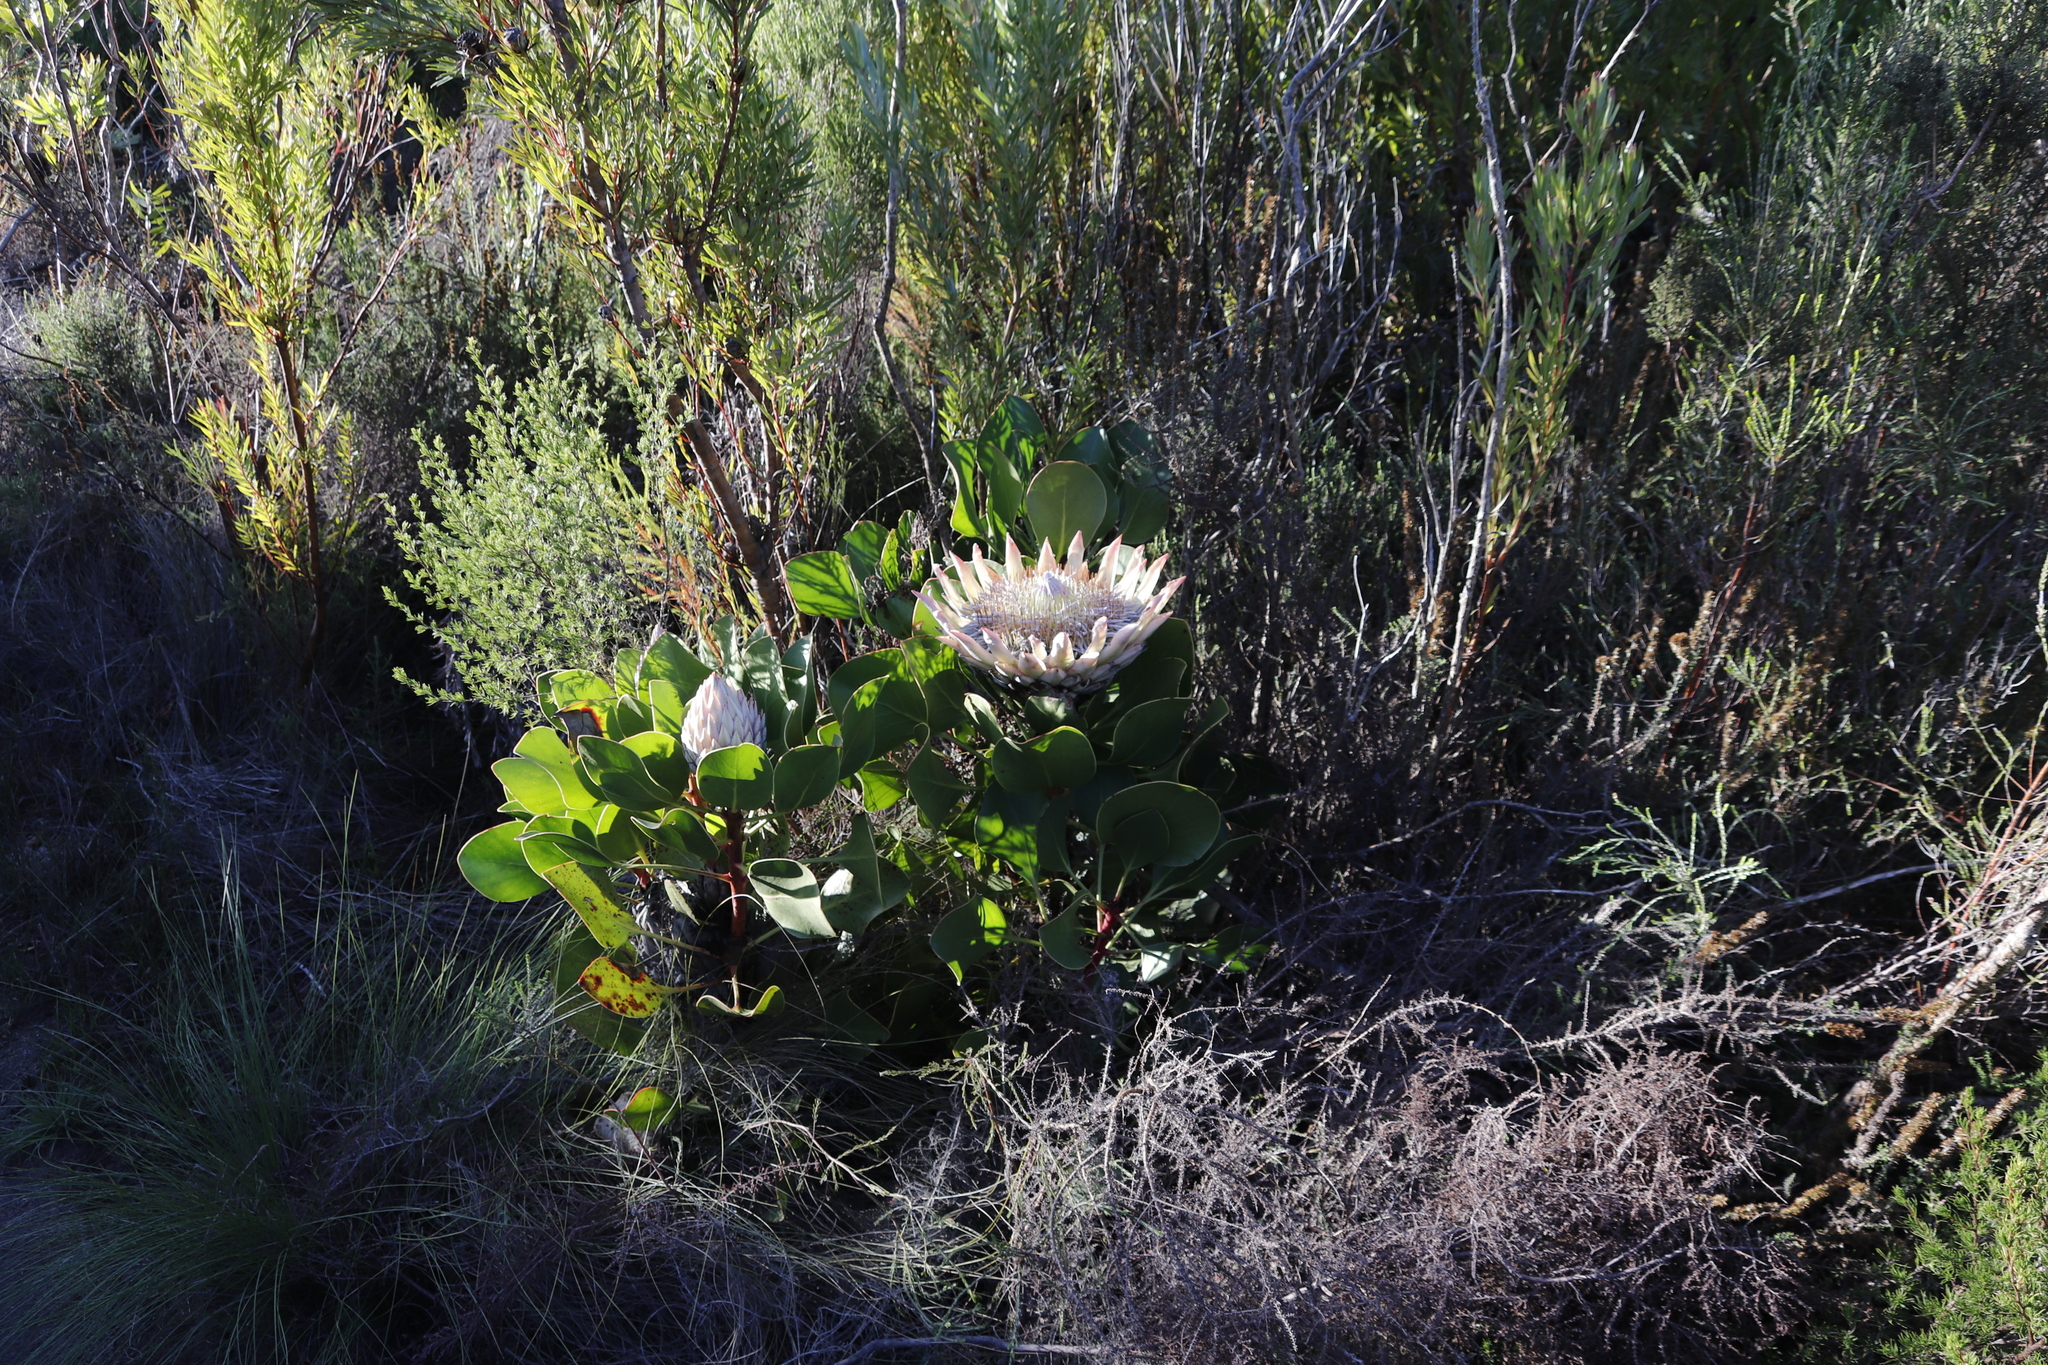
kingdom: Plantae
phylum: Tracheophyta
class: Magnoliopsida
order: Proteales
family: Proteaceae
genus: Protea
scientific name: Protea cynaroides
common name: King protea
